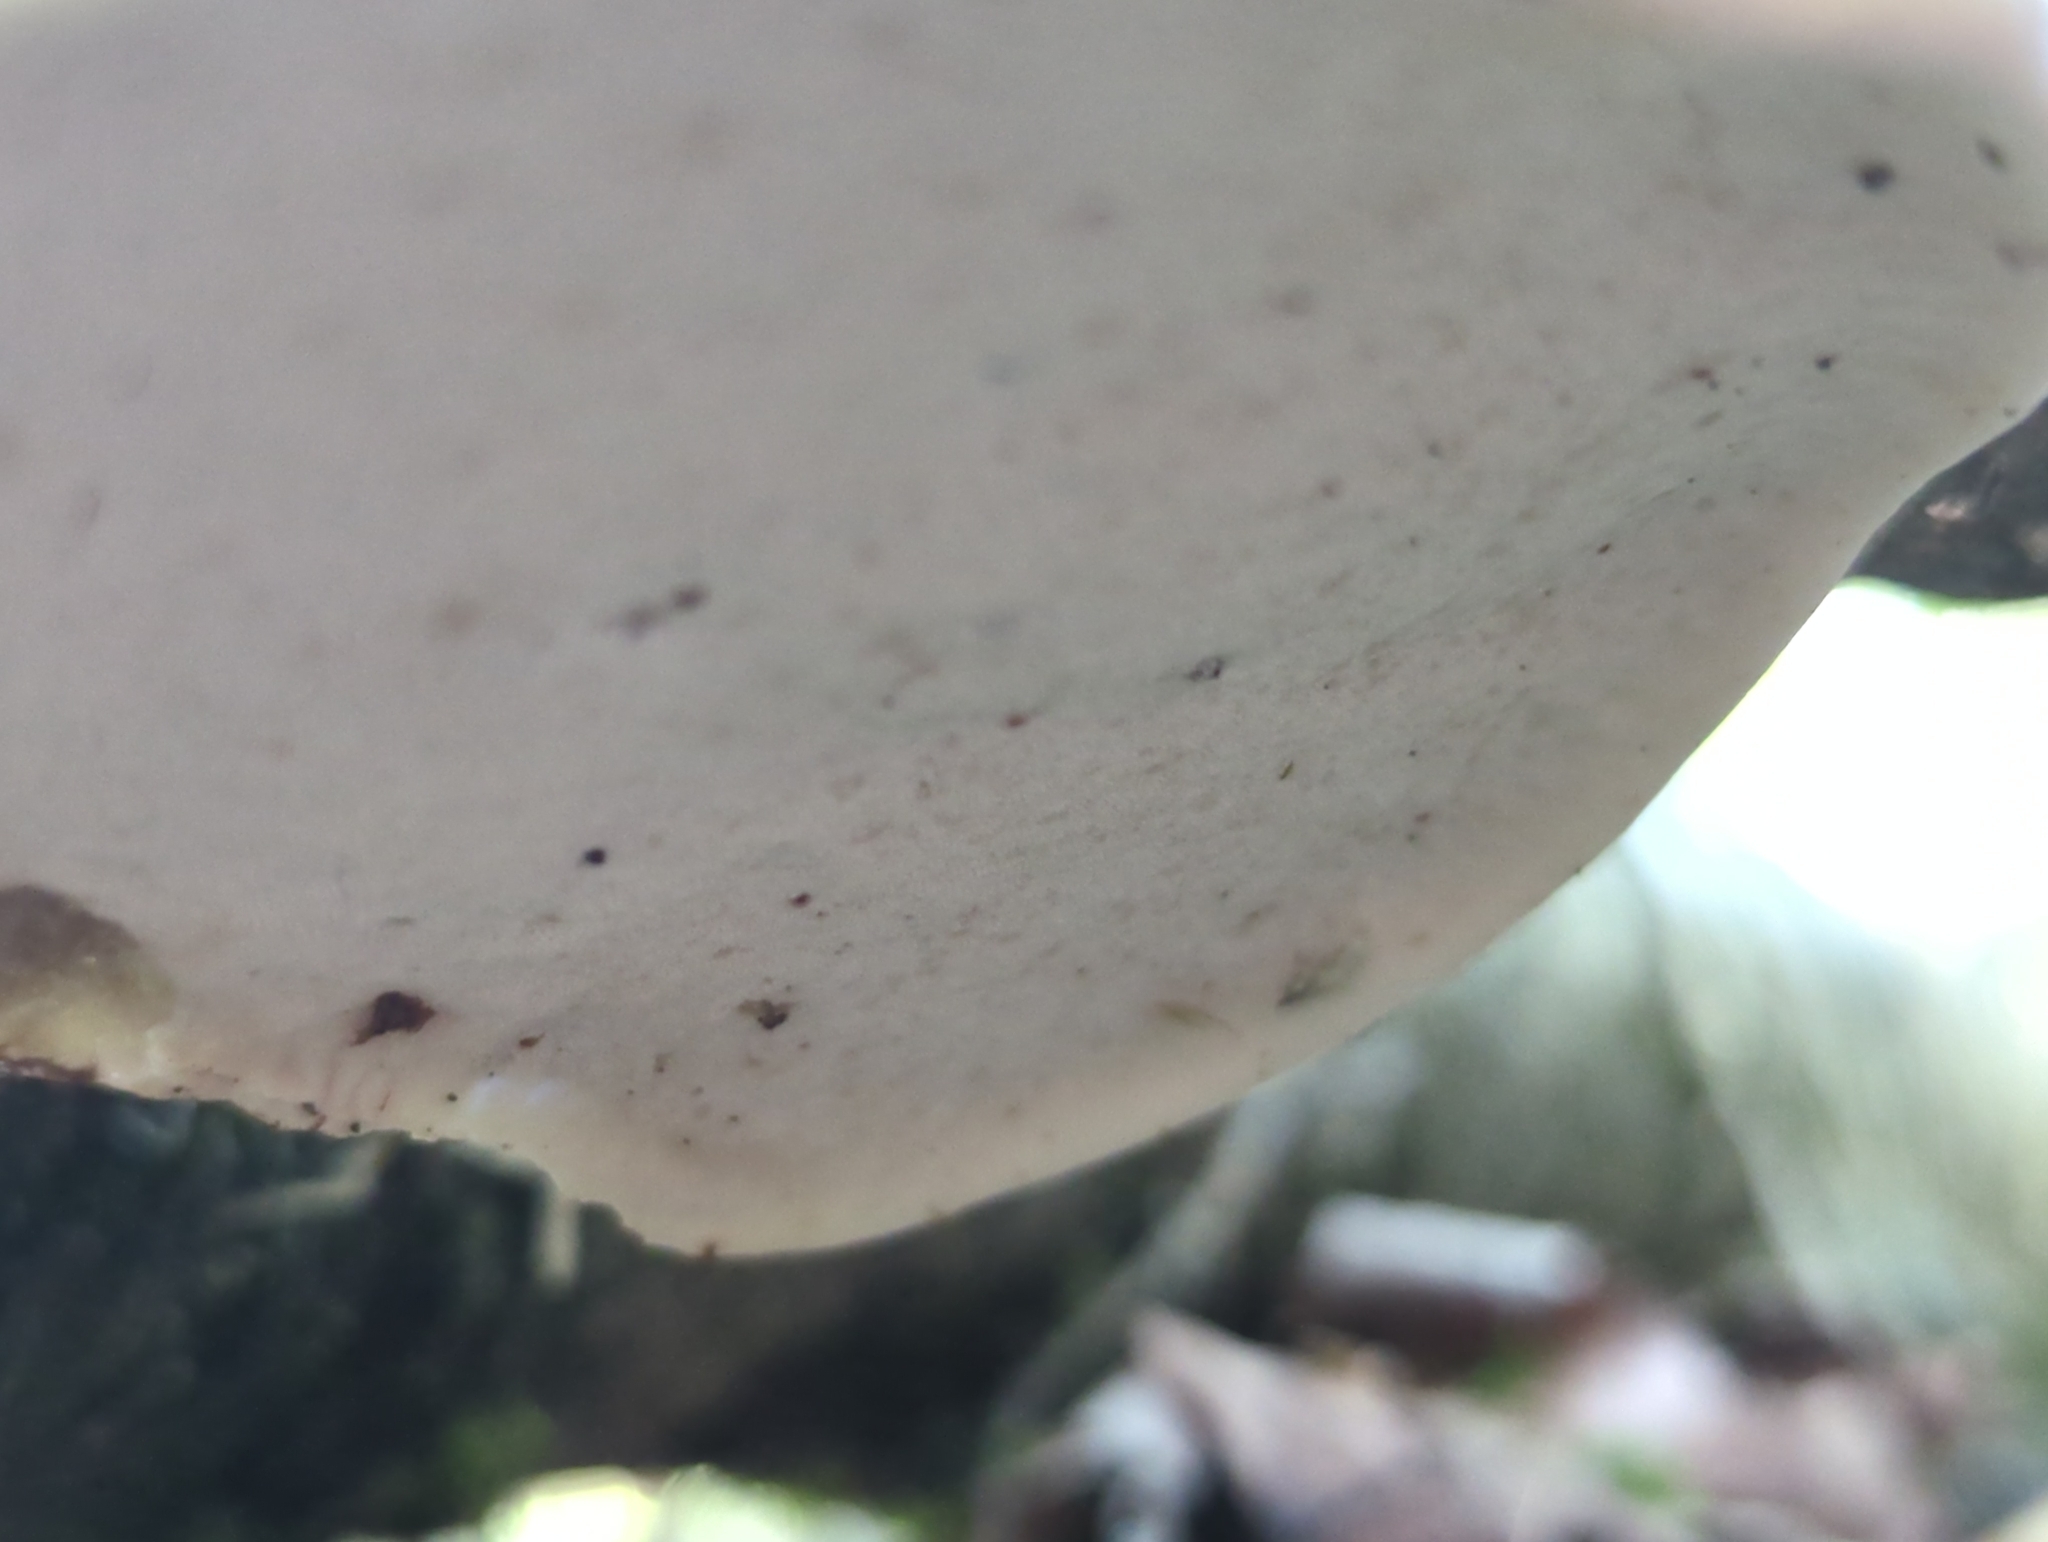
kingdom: Fungi
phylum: Basidiomycota
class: Agaricomycetes
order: Polyporales
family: Fomitopsidaceae
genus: Fomitopsis
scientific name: Fomitopsis betulina
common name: Birch polypore
